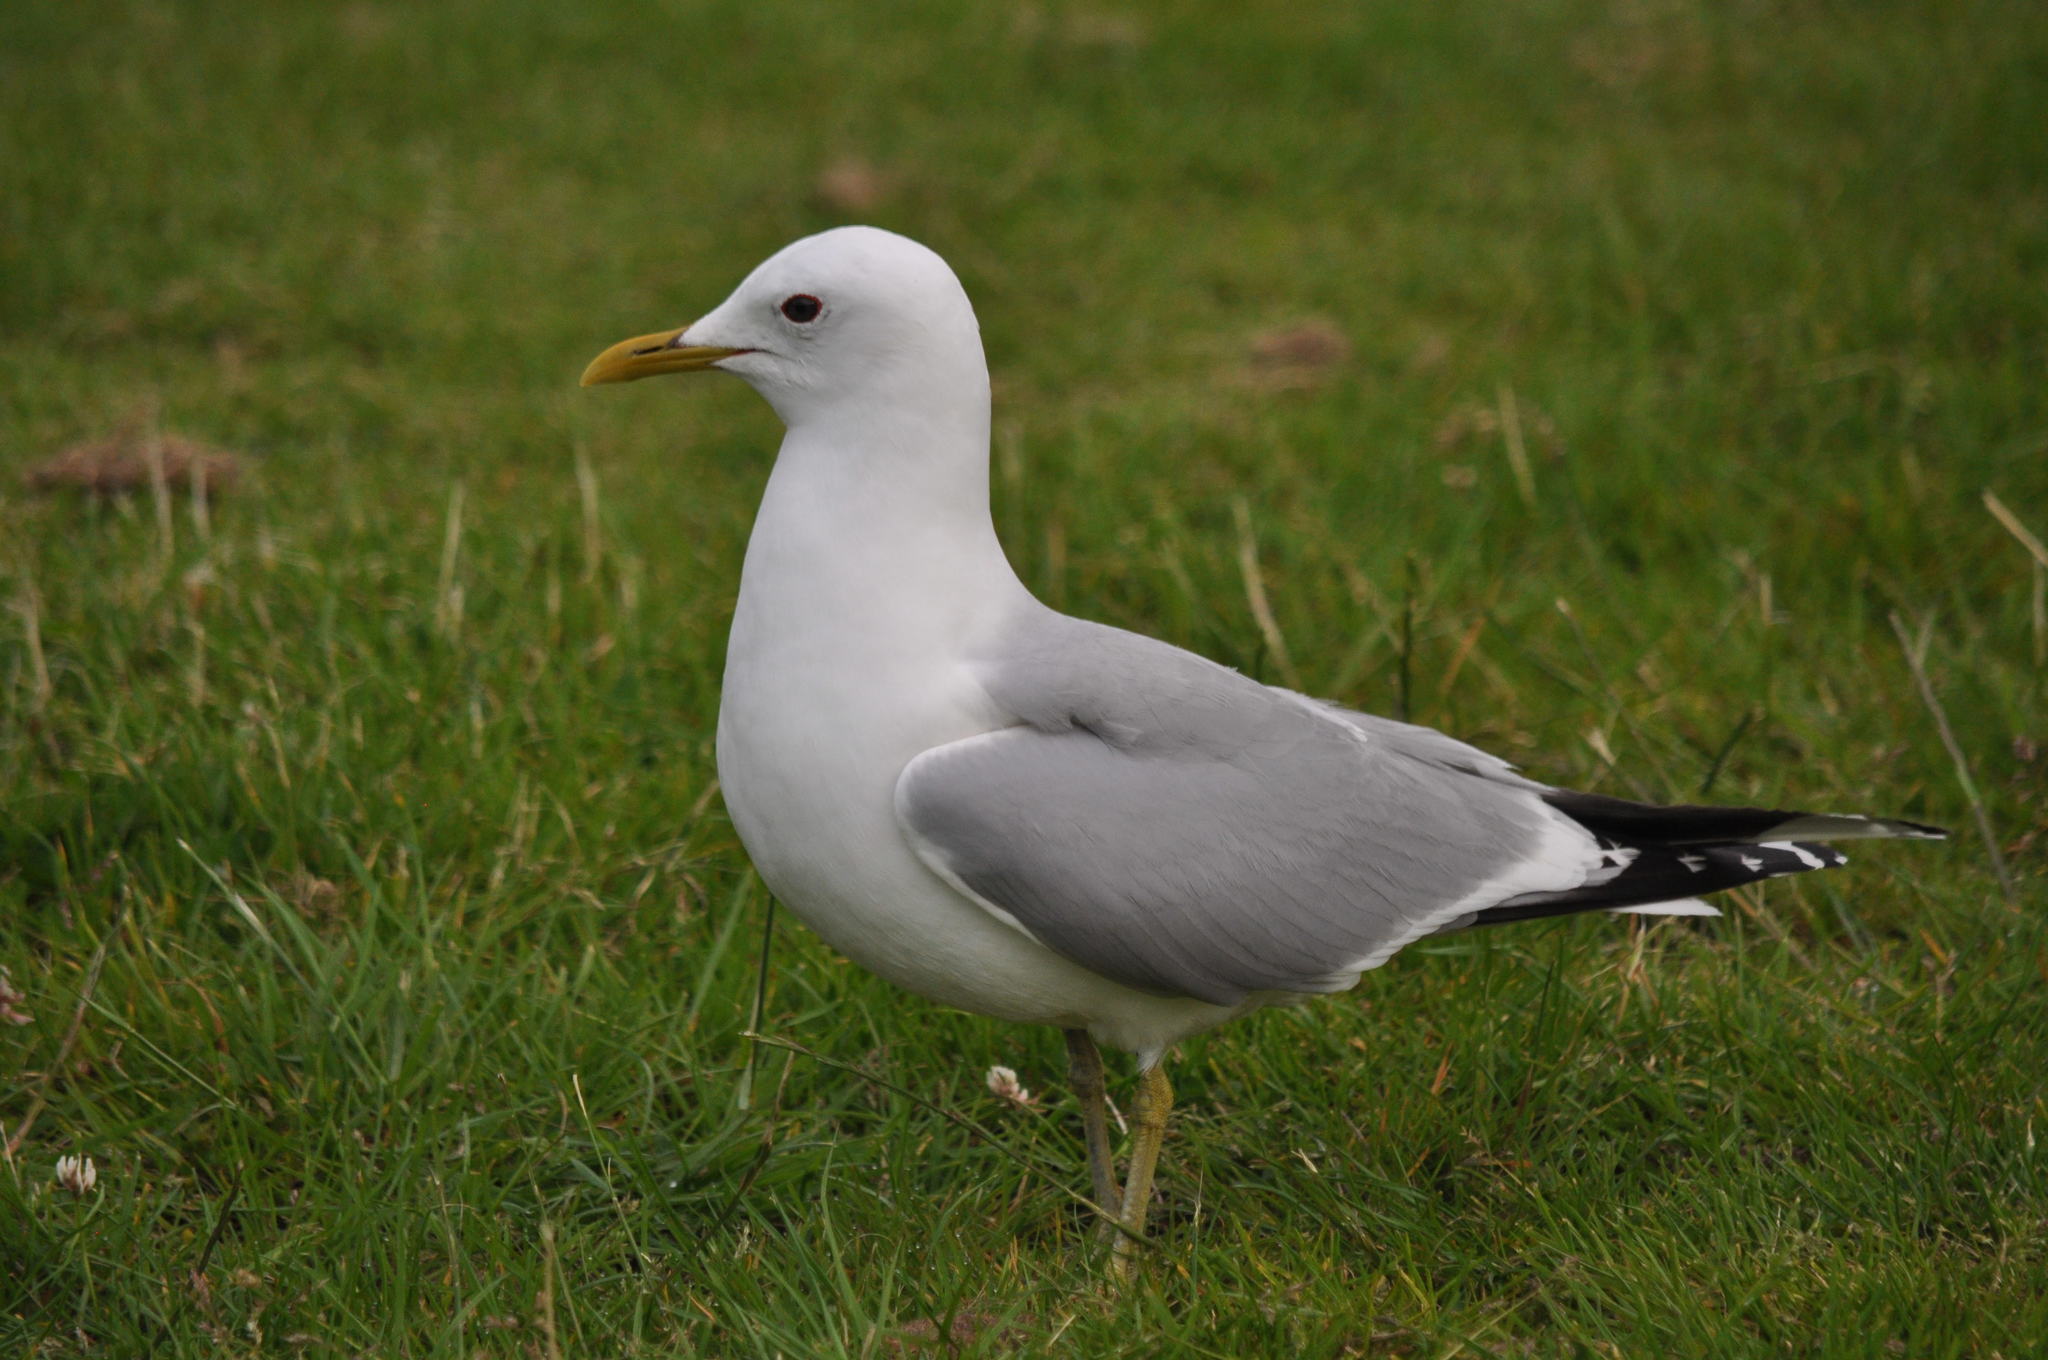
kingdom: Animalia
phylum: Chordata
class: Aves
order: Charadriiformes
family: Laridae
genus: Larus
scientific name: Larus canus
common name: Mew gull
